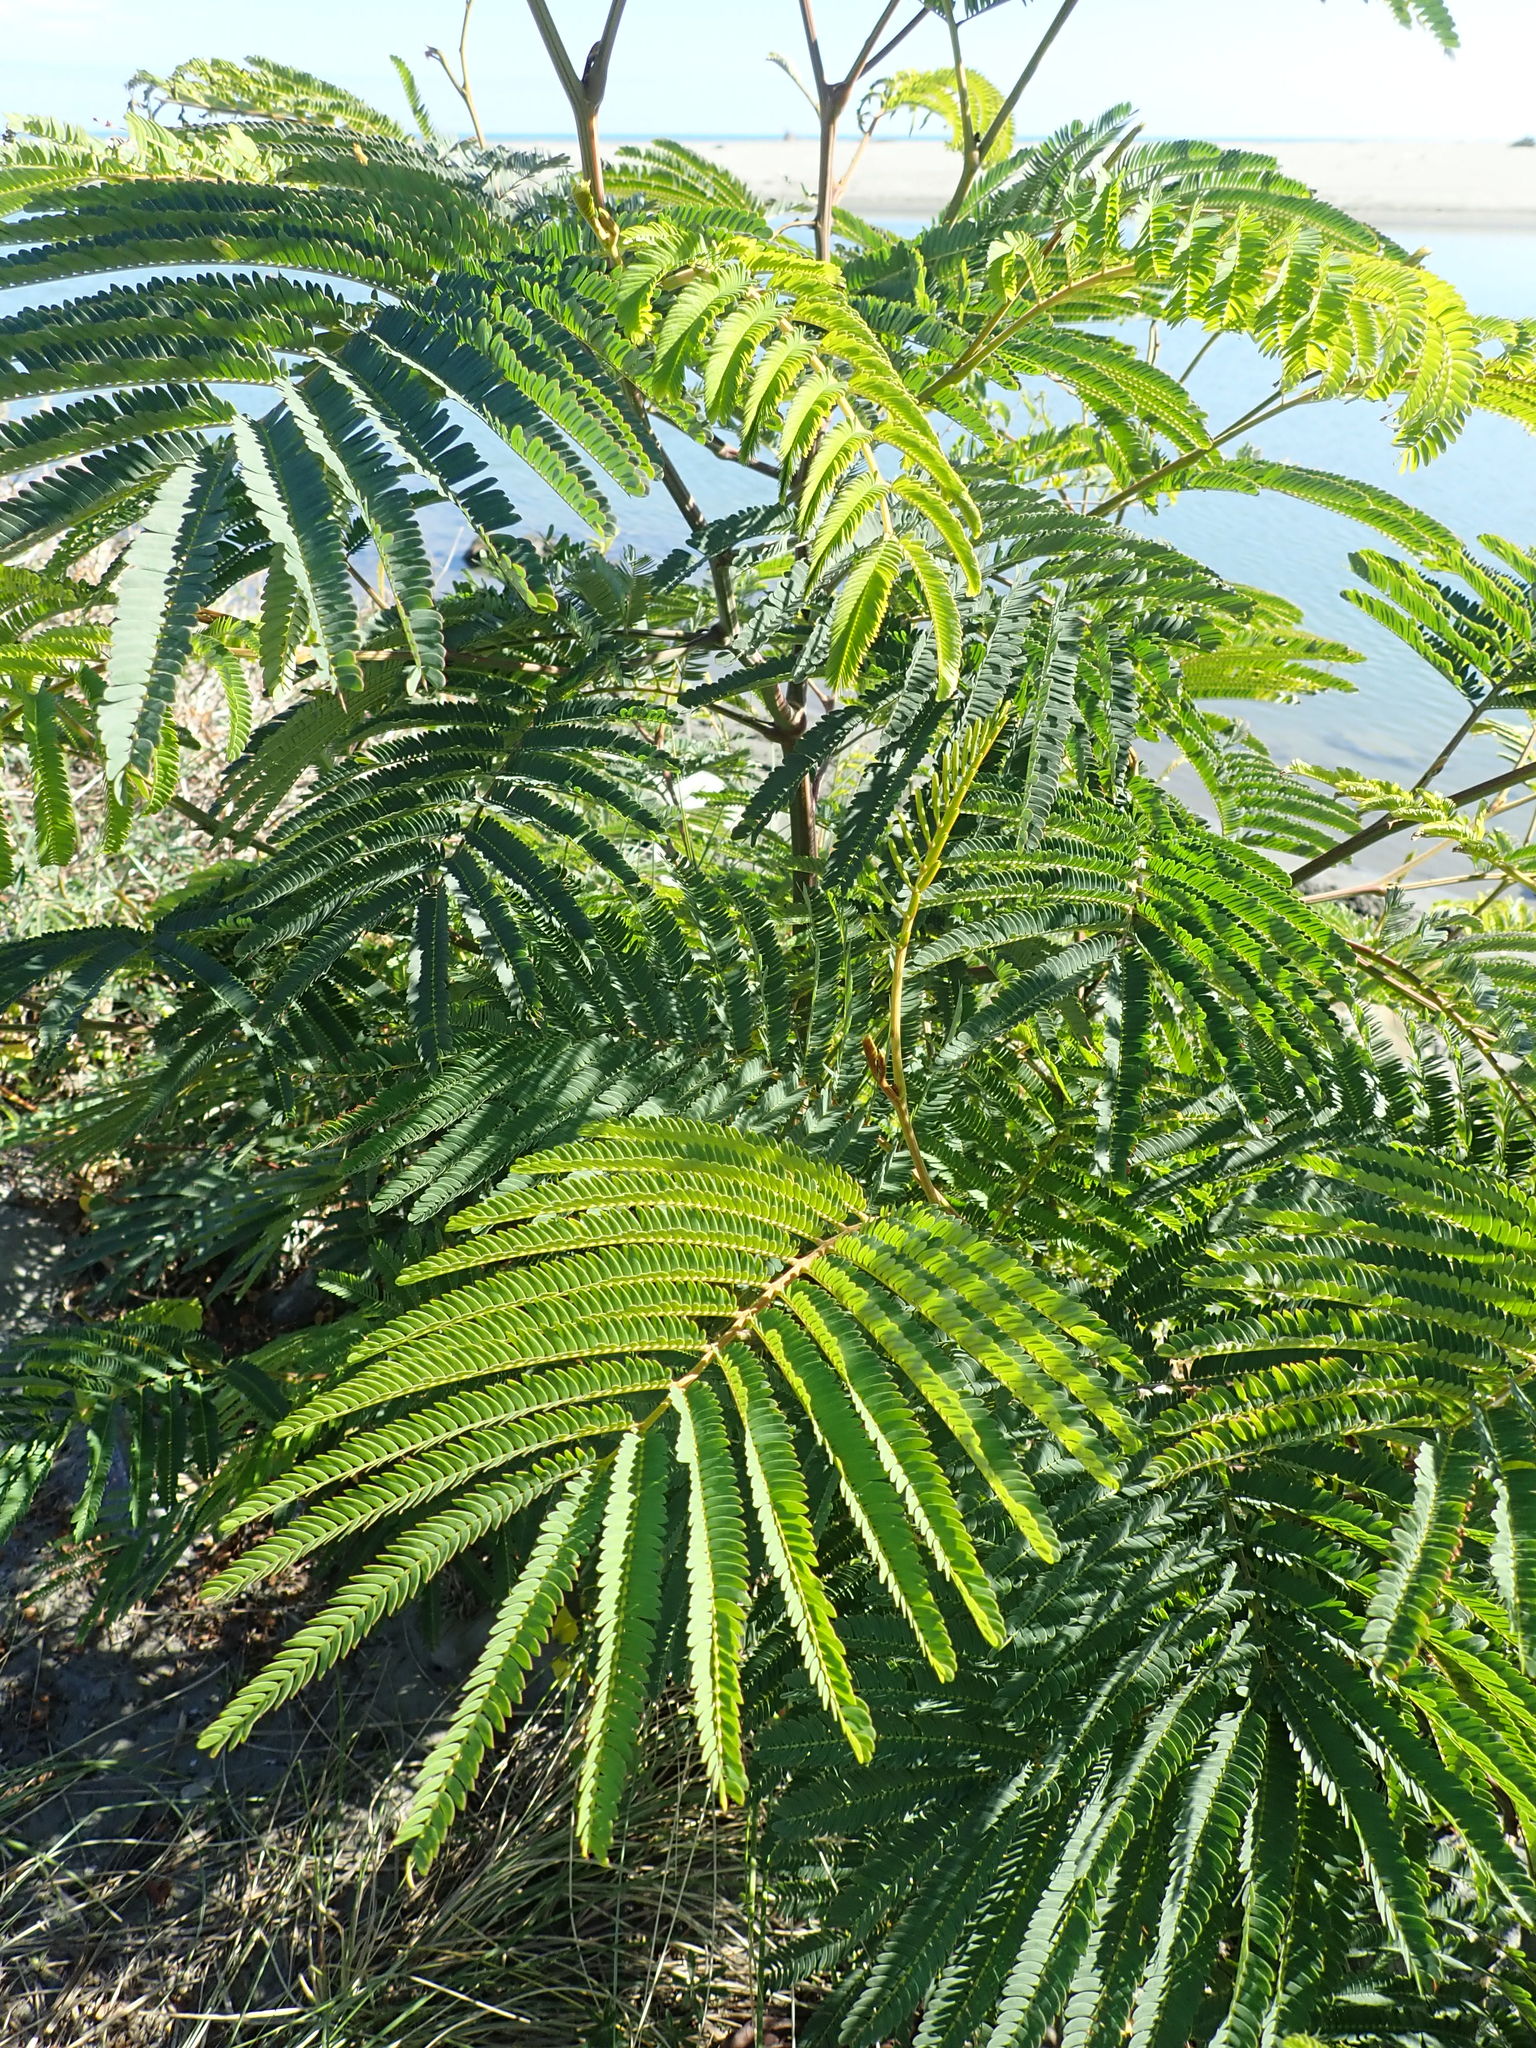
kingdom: Plantae
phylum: Tracheophyta
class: Magnoliopsida
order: Fabales
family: Fabaceae
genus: Paraserianthes
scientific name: Paraserianthes lophantha
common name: Plume albizia
